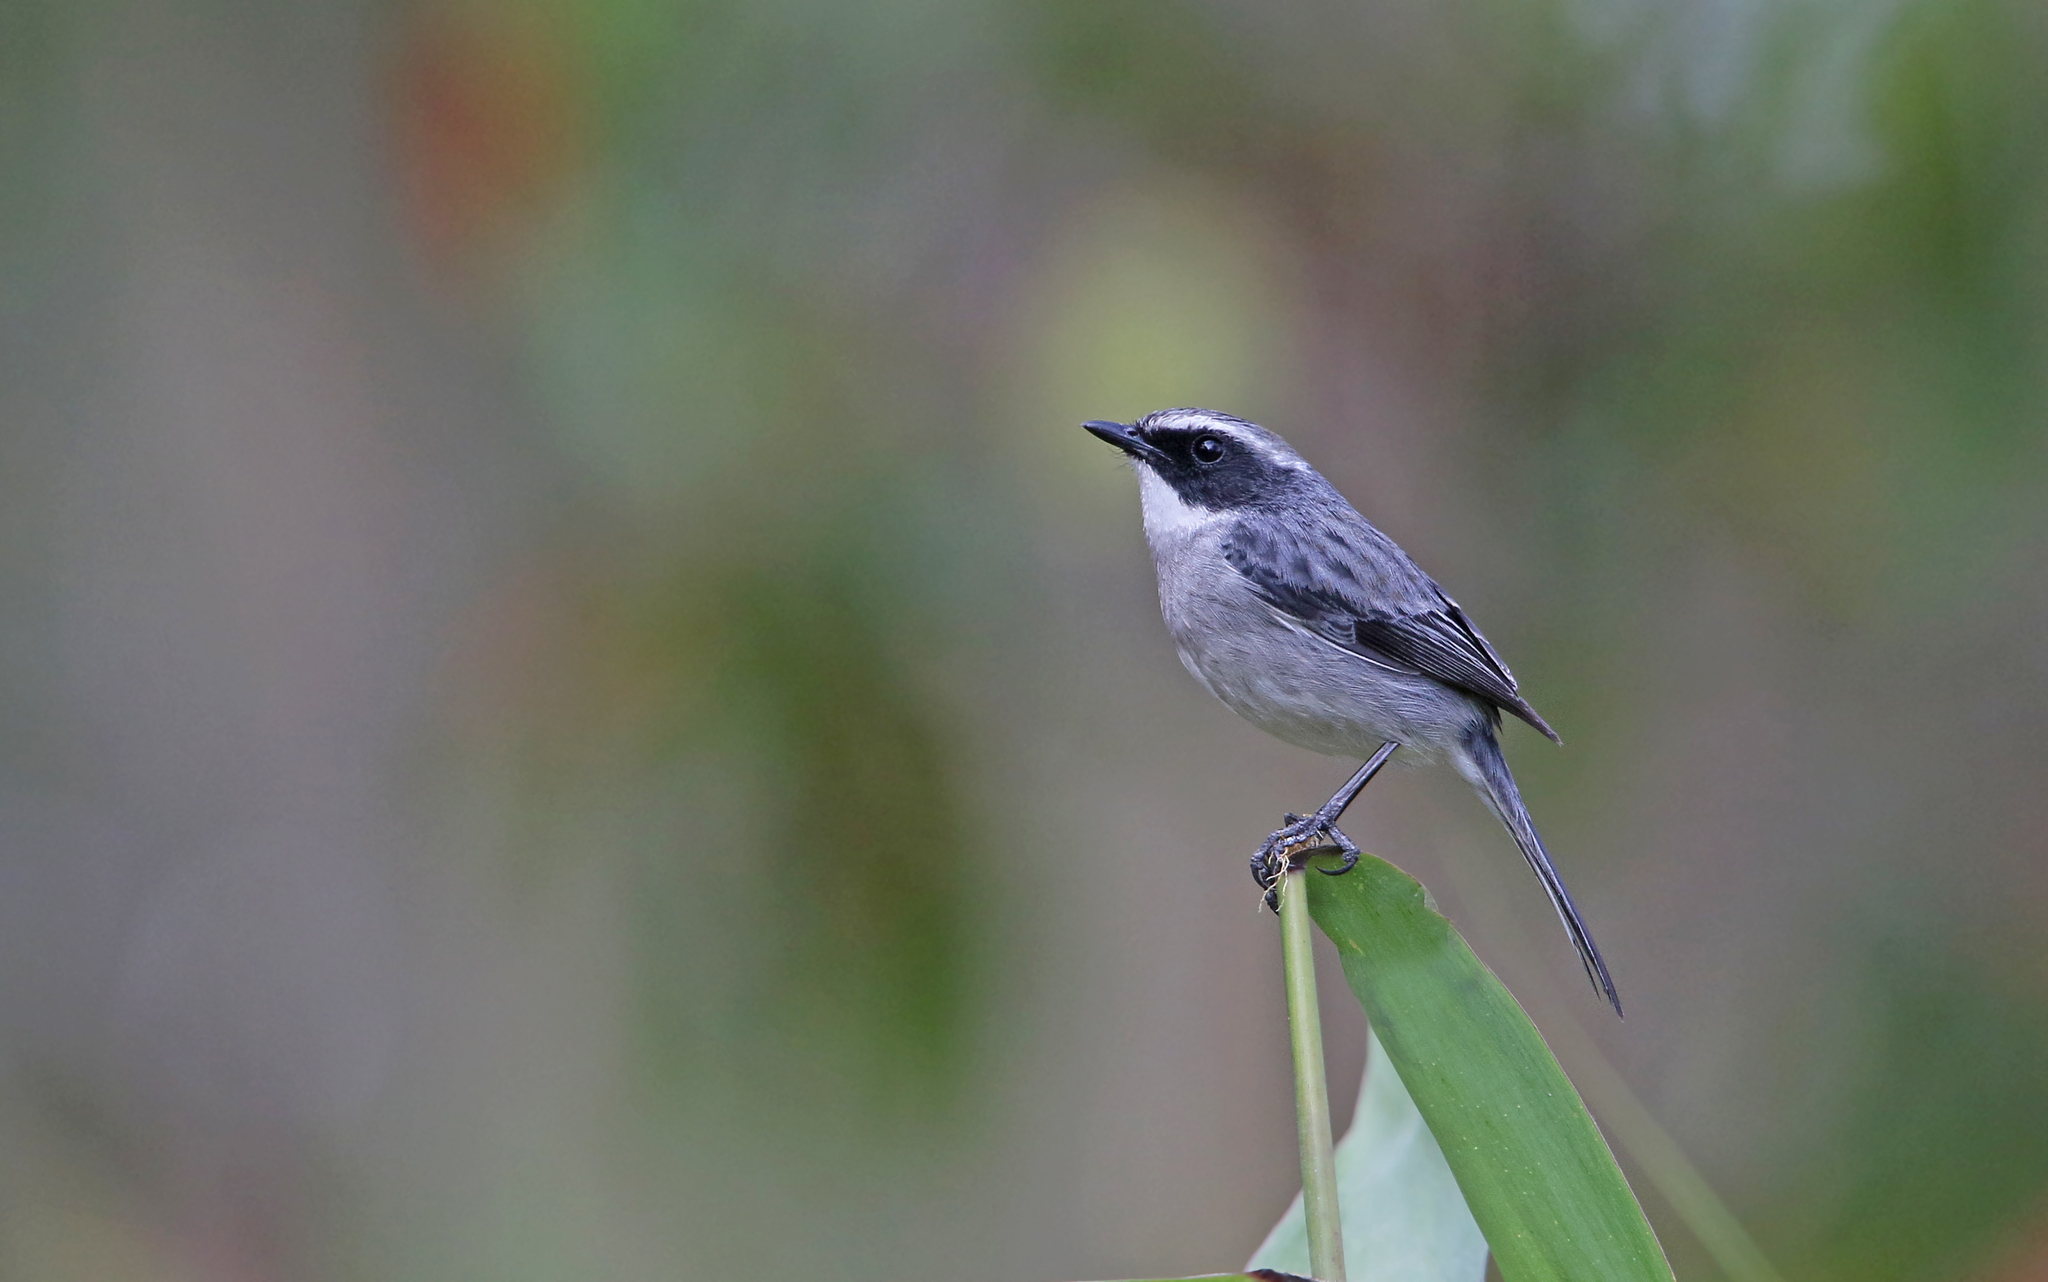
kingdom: Animalia
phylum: Chordata
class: Aves
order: Passeriformes
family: Muscicapidae
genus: Saxicola
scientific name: Saxicola ferreus
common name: Grey bush chat
